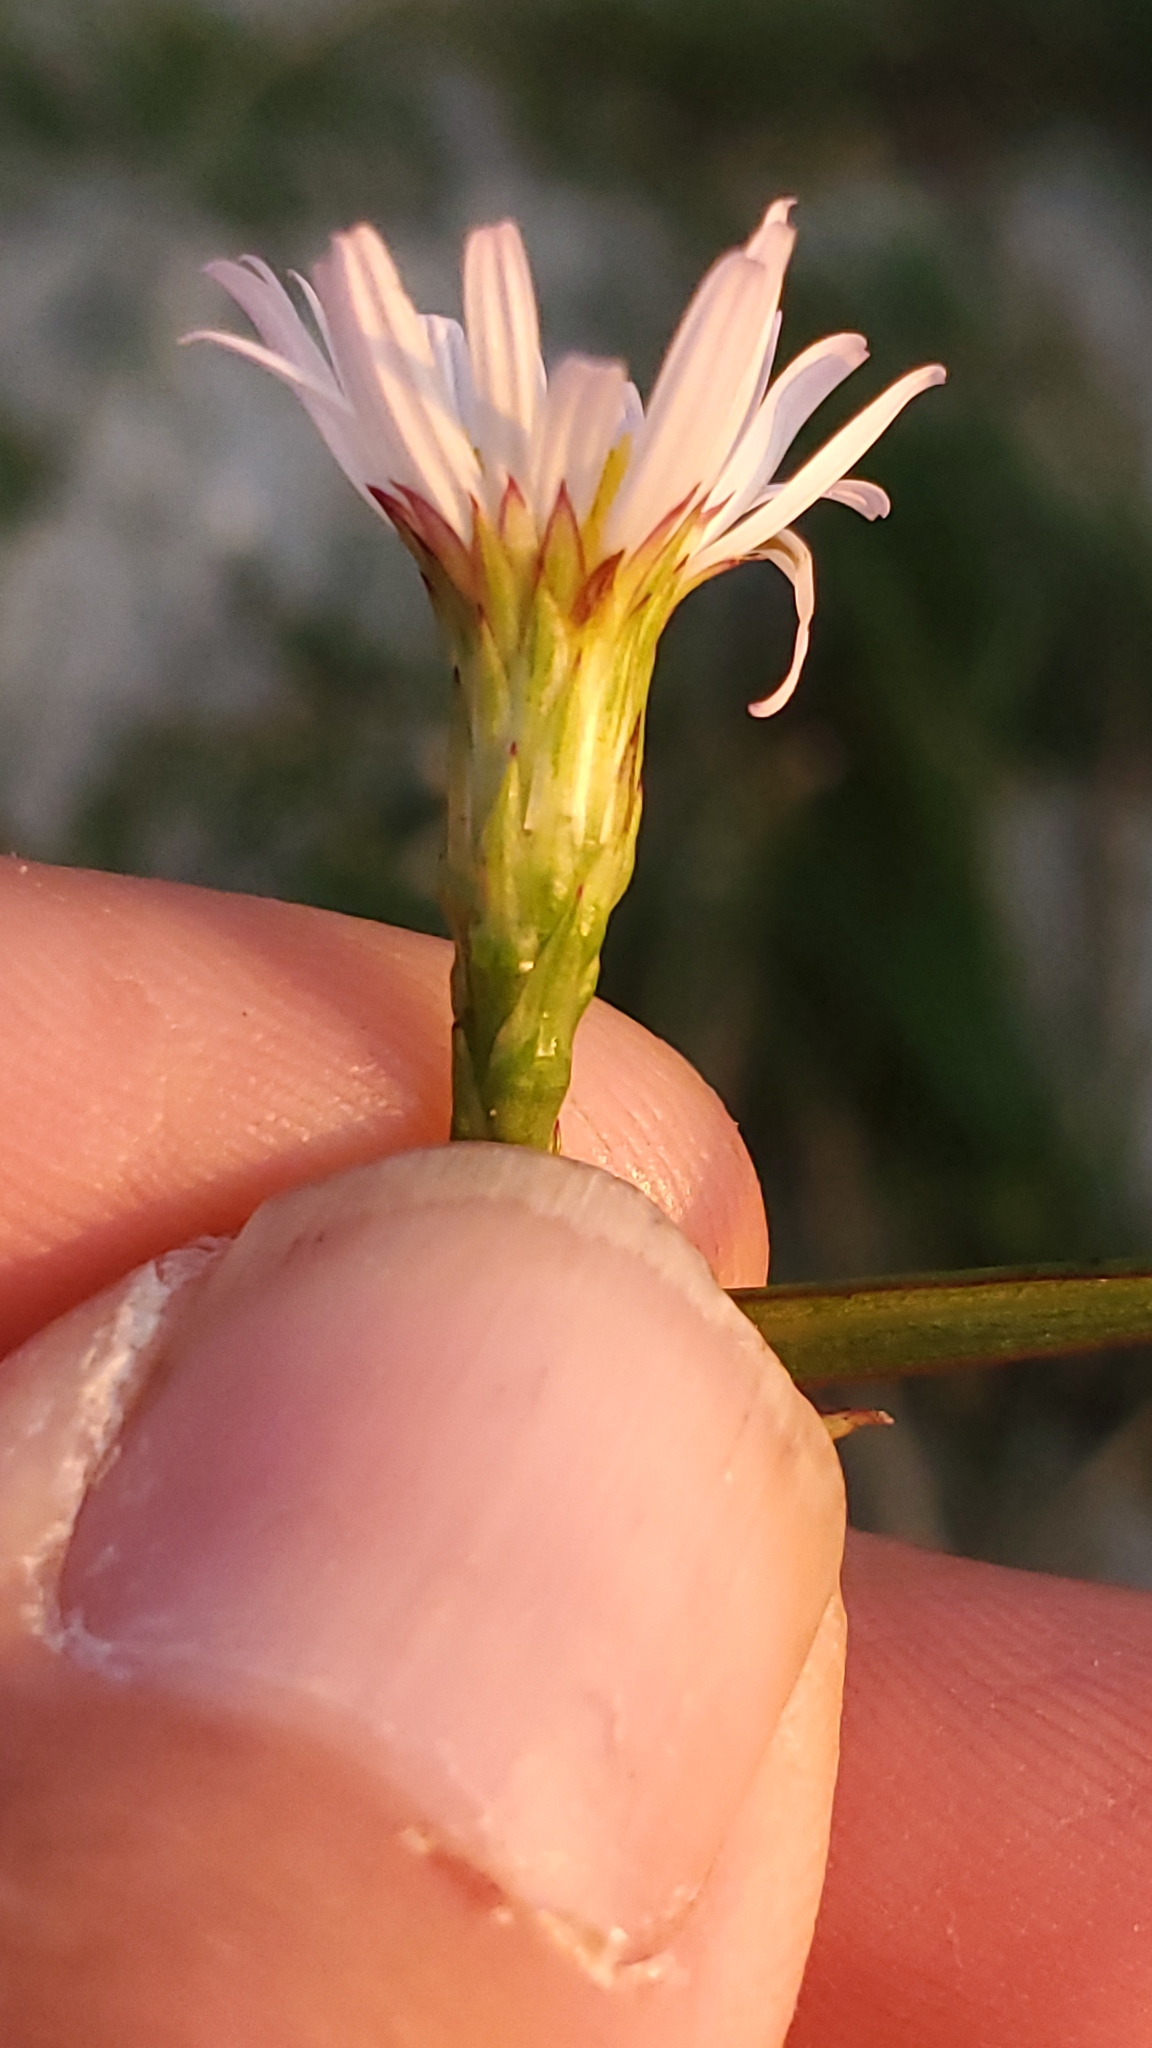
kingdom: Plantae
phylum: Tracheophyta
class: Magnoliopsida
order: Asterales
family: Asteraceae
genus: Symphyotrichum
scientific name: Symphyotrichum tenuifolium
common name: Perennial salt-marsh aster
